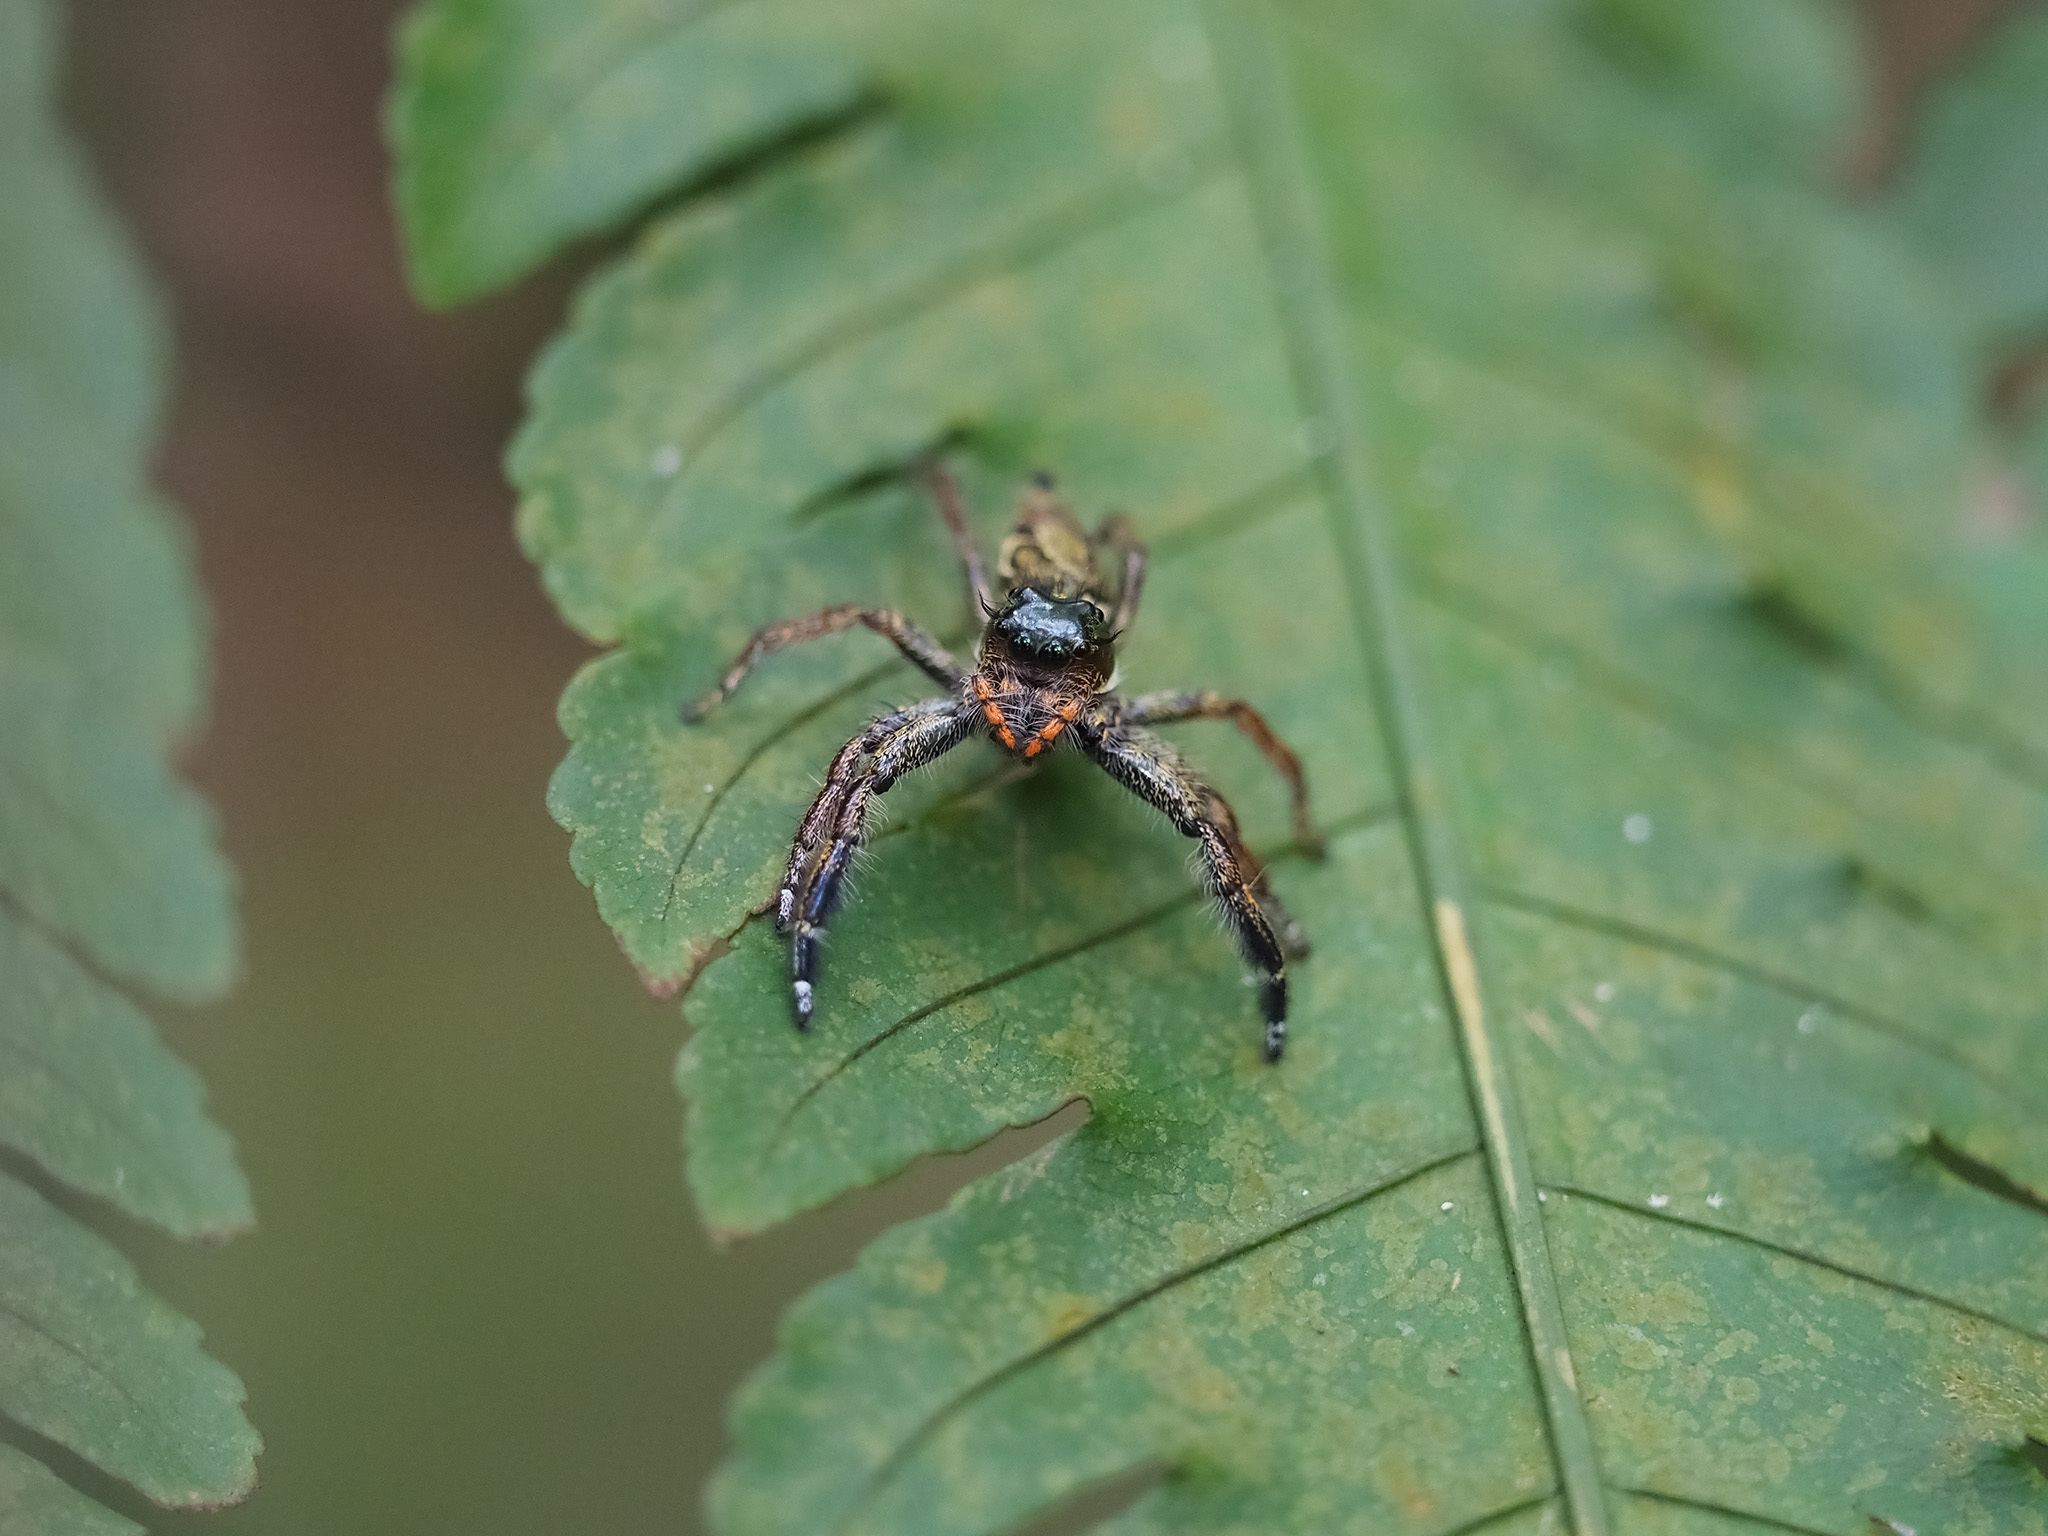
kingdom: Animalia
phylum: Arthropoda
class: Arachnida
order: Araneae
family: Salticidae
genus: Hyllus
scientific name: Hyllus keratodes
